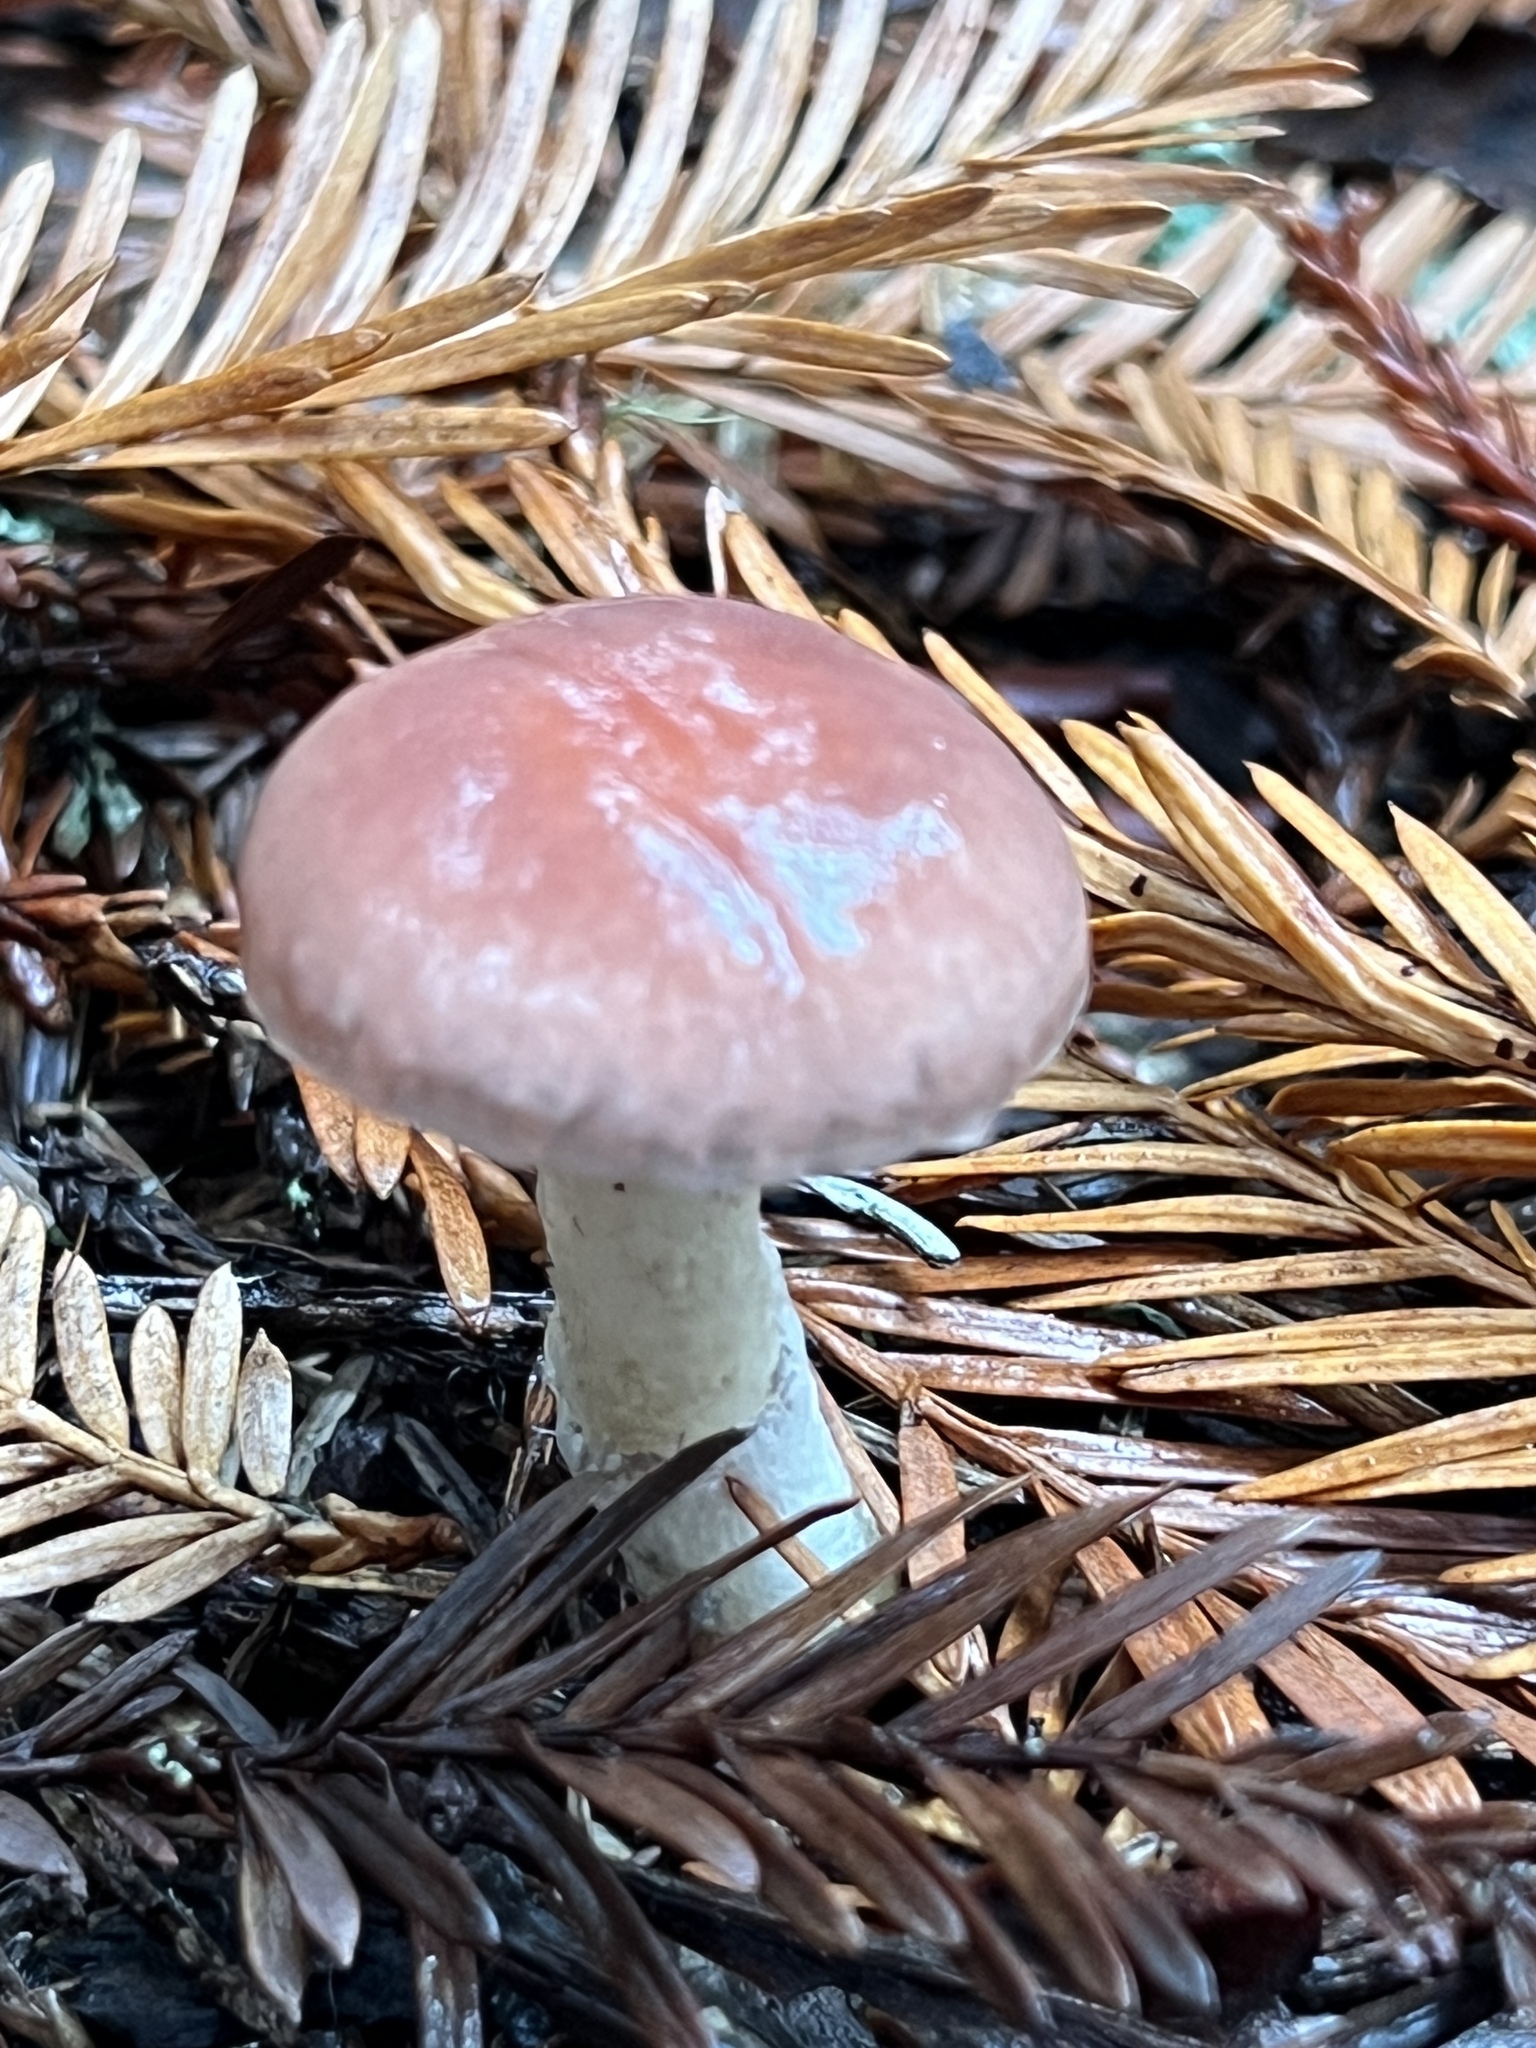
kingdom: Fungi
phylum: Basidiomycota
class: Agaricomycetes
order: Boletales
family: Gomphidiaceae
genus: Gomphidius
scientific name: Gomphidius subroseus
